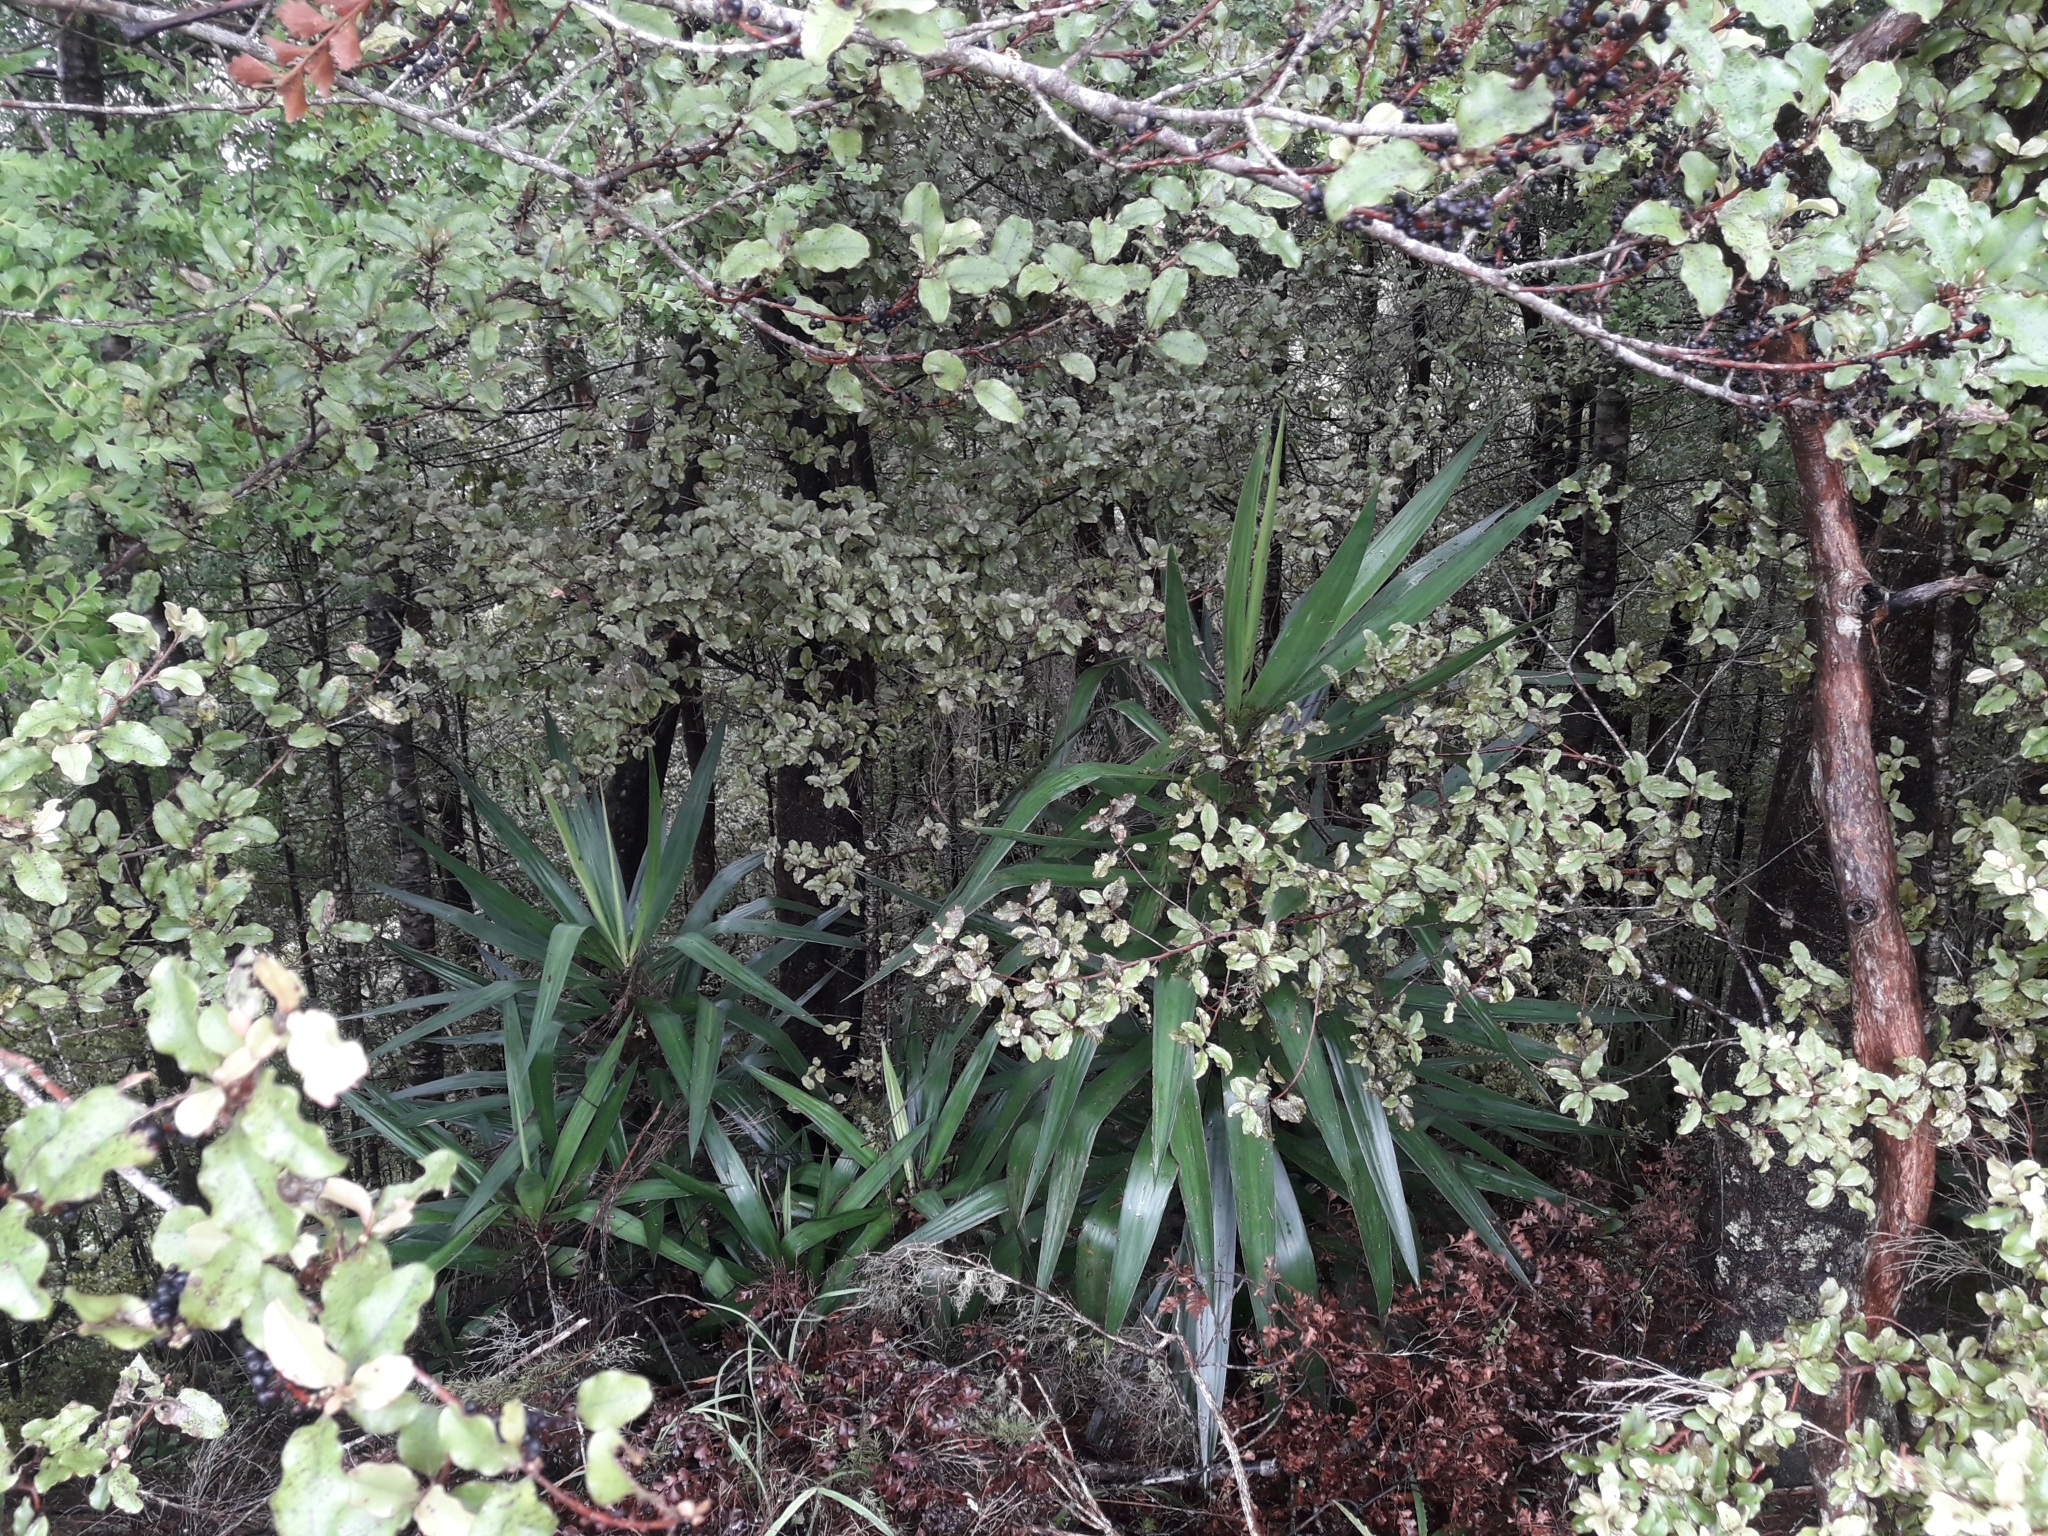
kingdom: Plantae
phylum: Tracheophyta
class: Liliopsida
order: Asparagales
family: Asparagaceae
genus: Yucca
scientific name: Yucca gloriosa
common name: Spanish-dagger
